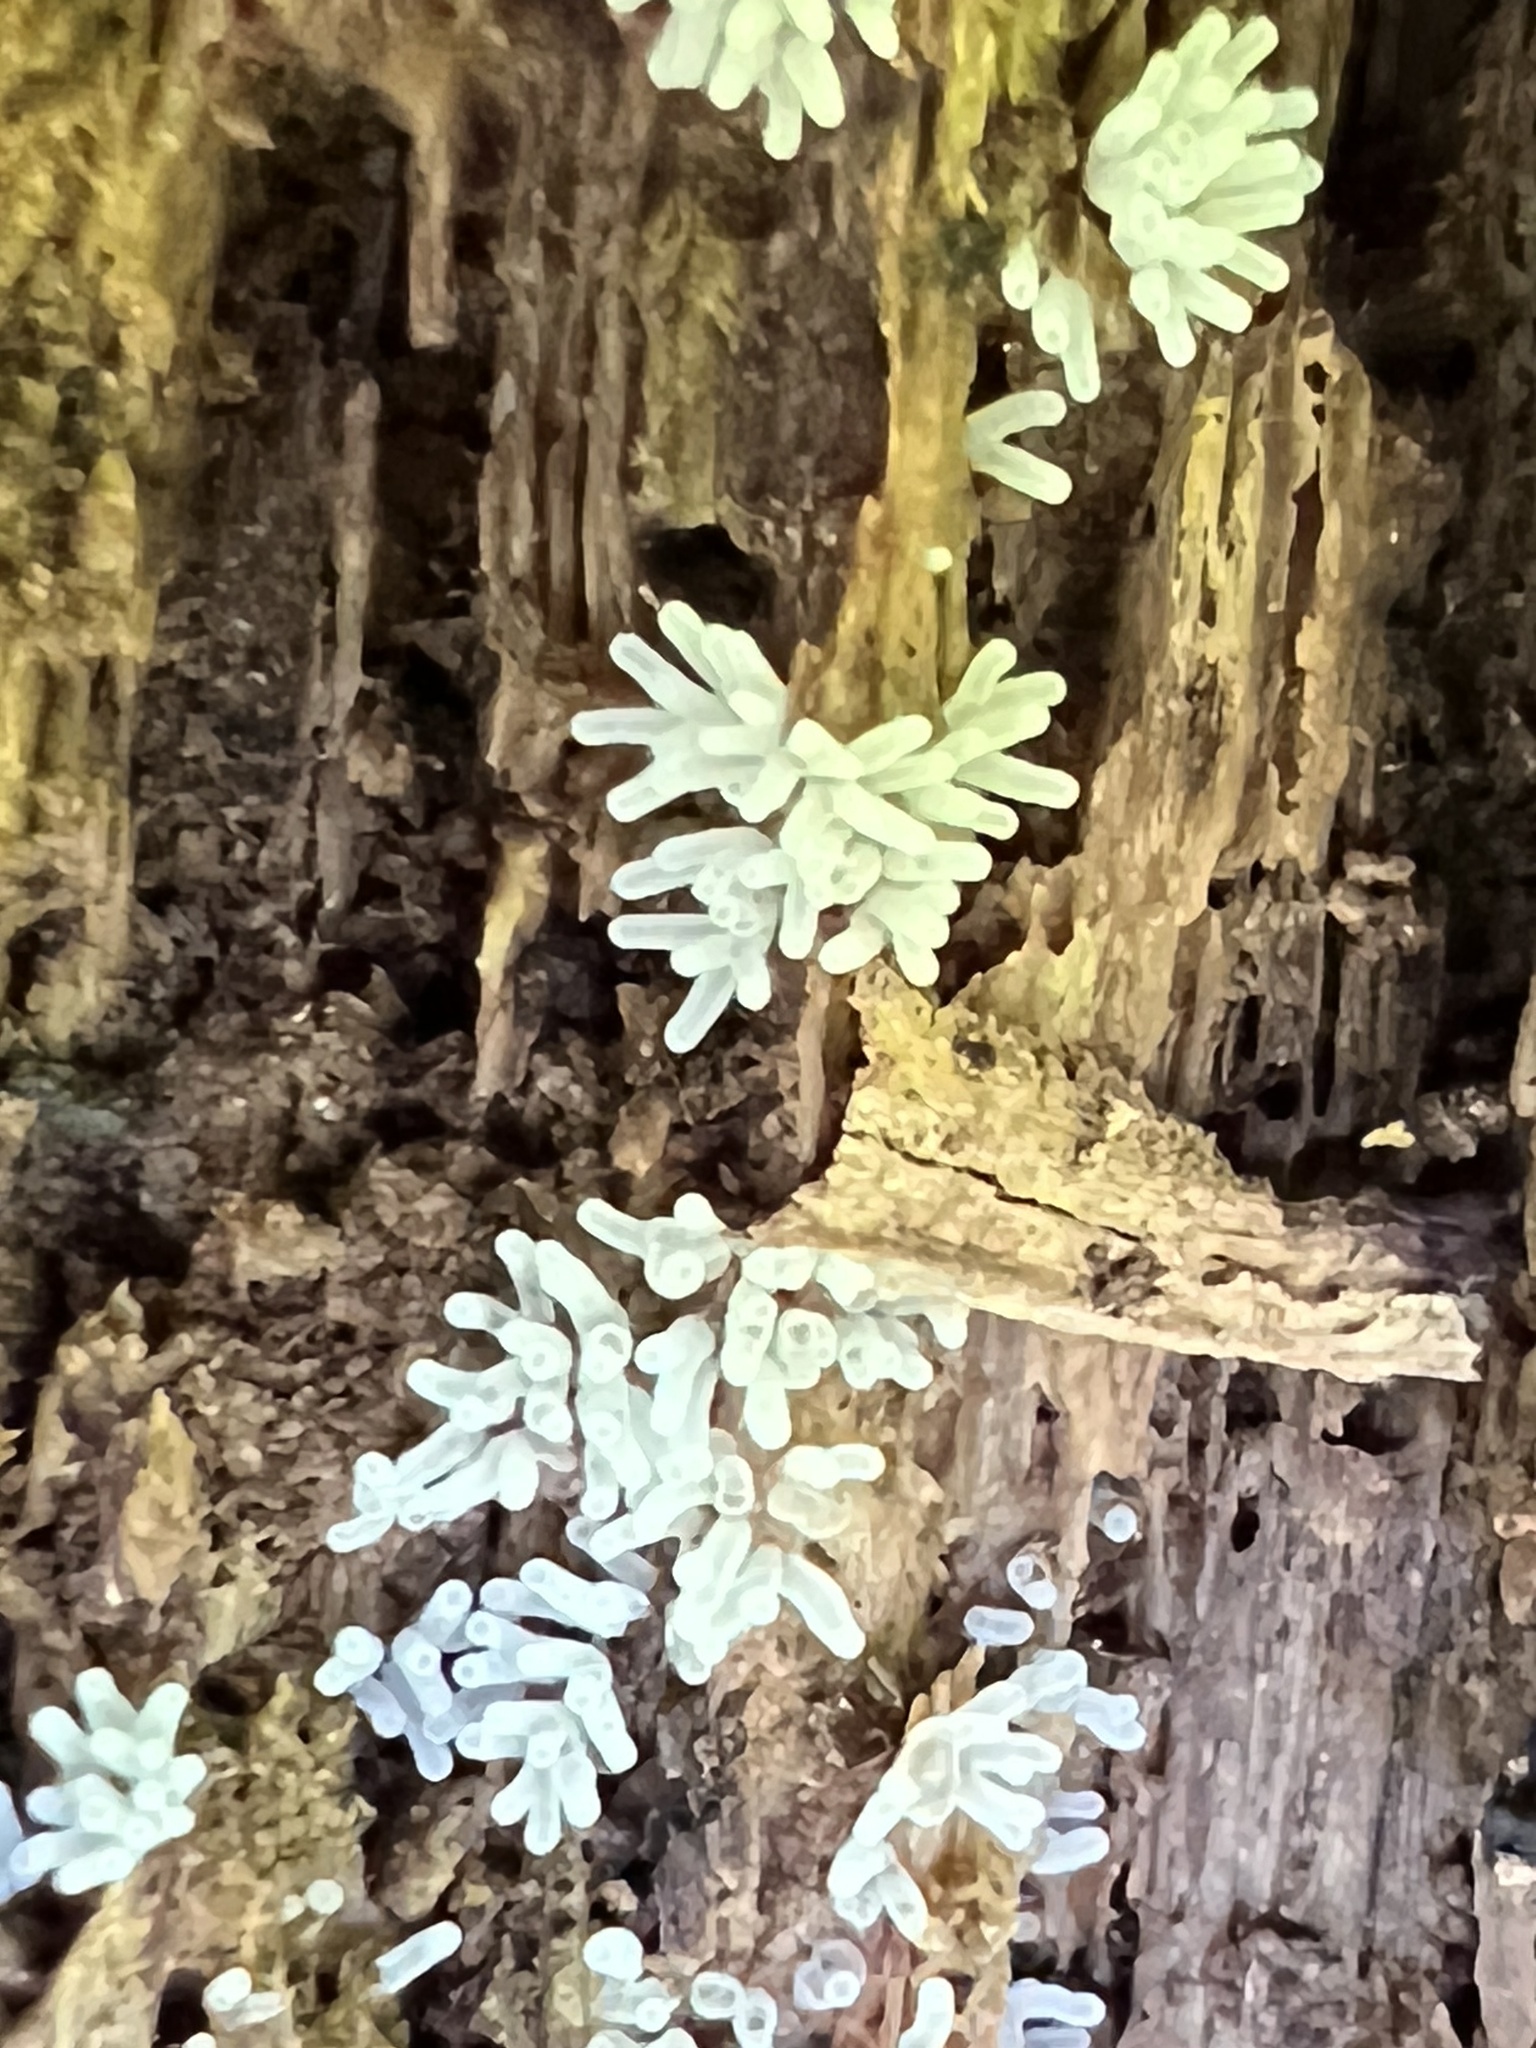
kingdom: Protozoa
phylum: Mycetozoa
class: Protosteliomycetes
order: Ceratiomyxales
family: Ceratiomyxaceae
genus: Ceratiomyxa
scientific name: Ceratiomyxa fruticulosa
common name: Honeycomb coral slime mold
